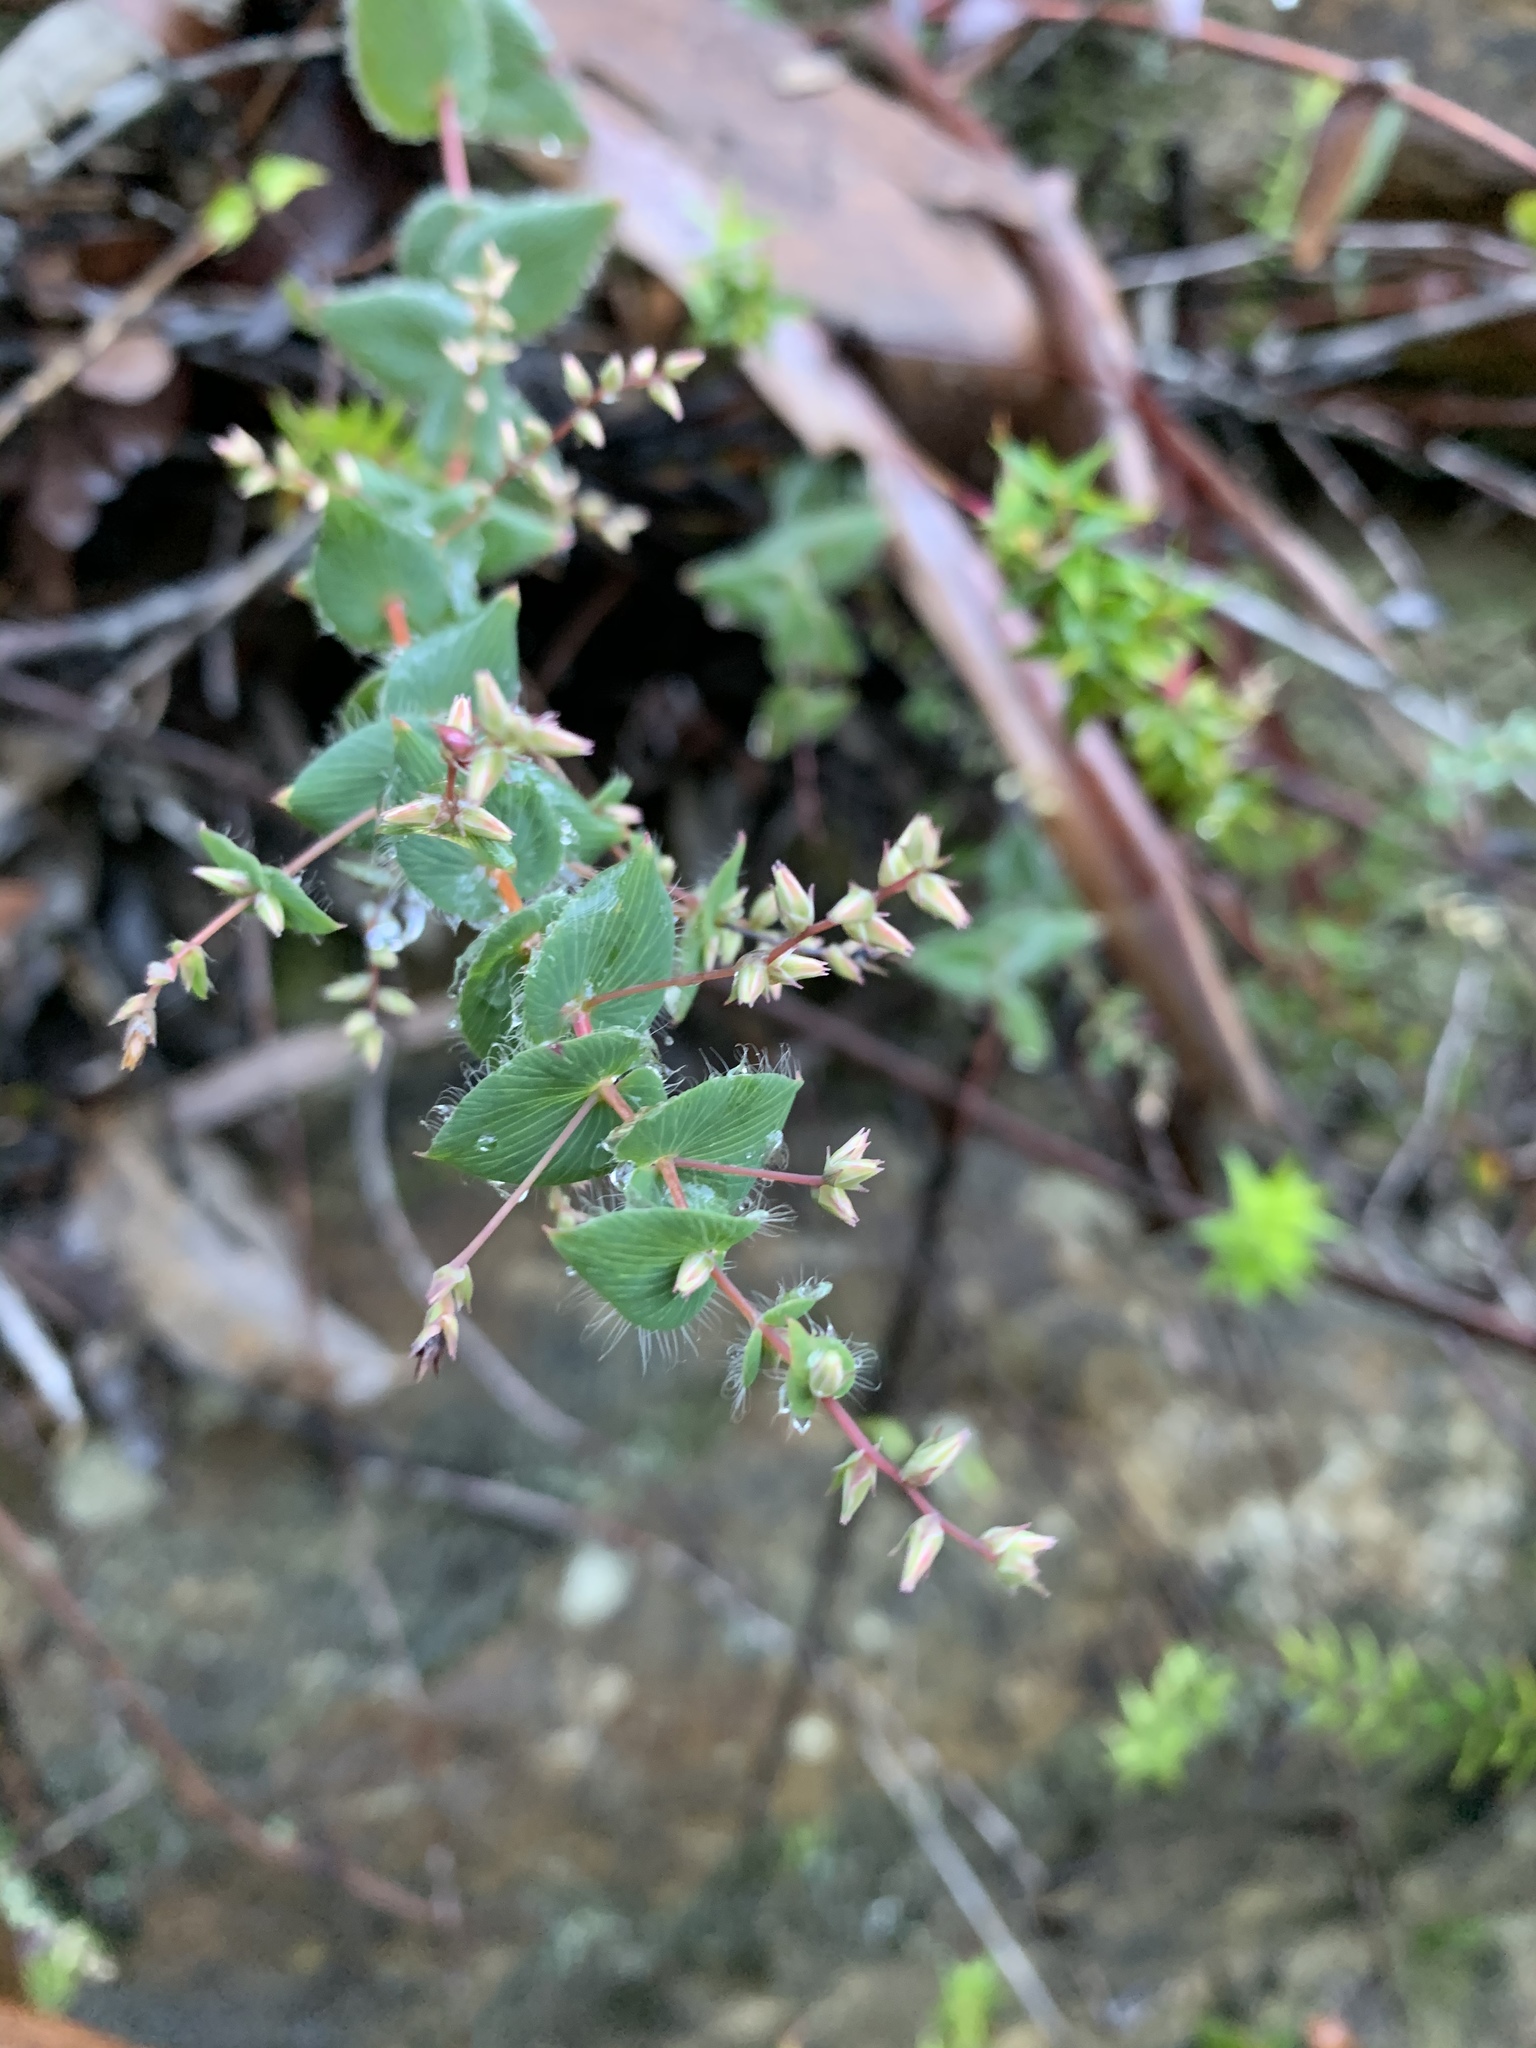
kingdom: Plantae
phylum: Tracheophyta
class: Magnoliopsida
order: Ericales
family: Ericaceae
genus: Leucopogon
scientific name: Leucopogon amplexicaulis
